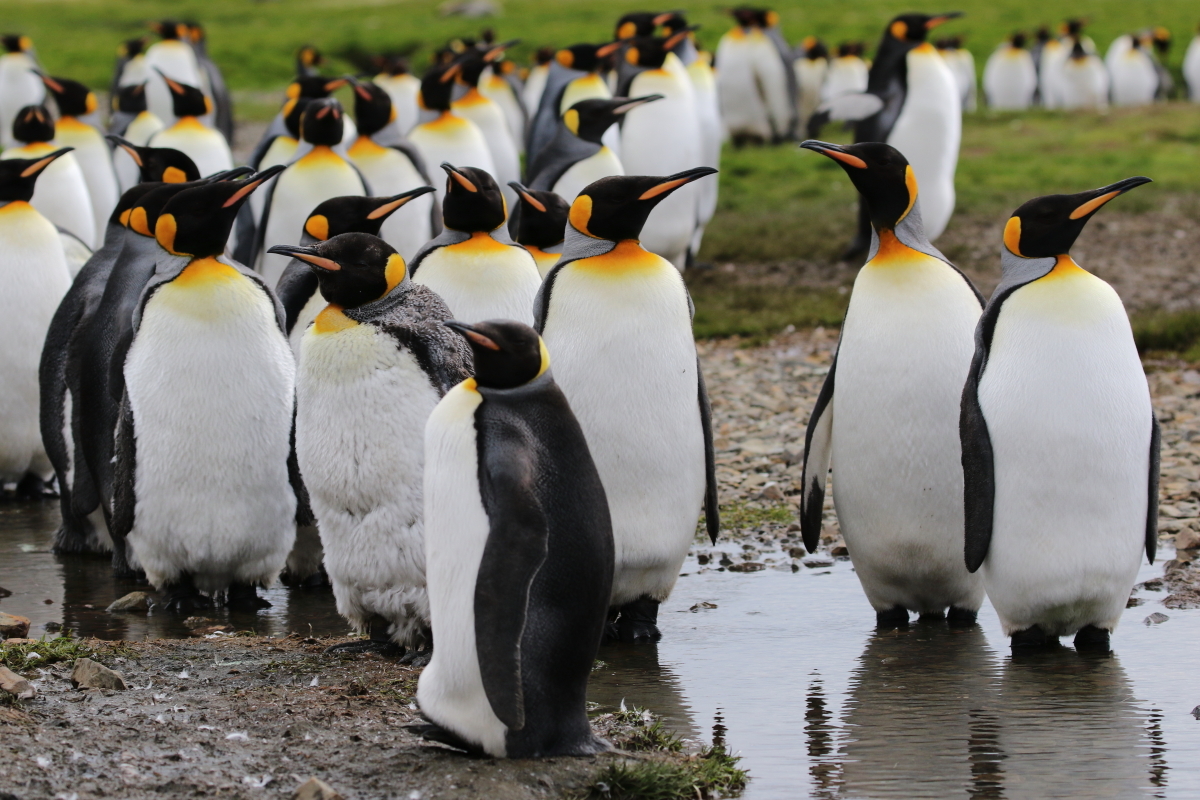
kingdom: Animalia
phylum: Chordata
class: Aves
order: Sphenisciformes
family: Spheniscidae
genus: Aptenodytes
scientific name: Aptenodytes patagonicus
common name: King penguin
